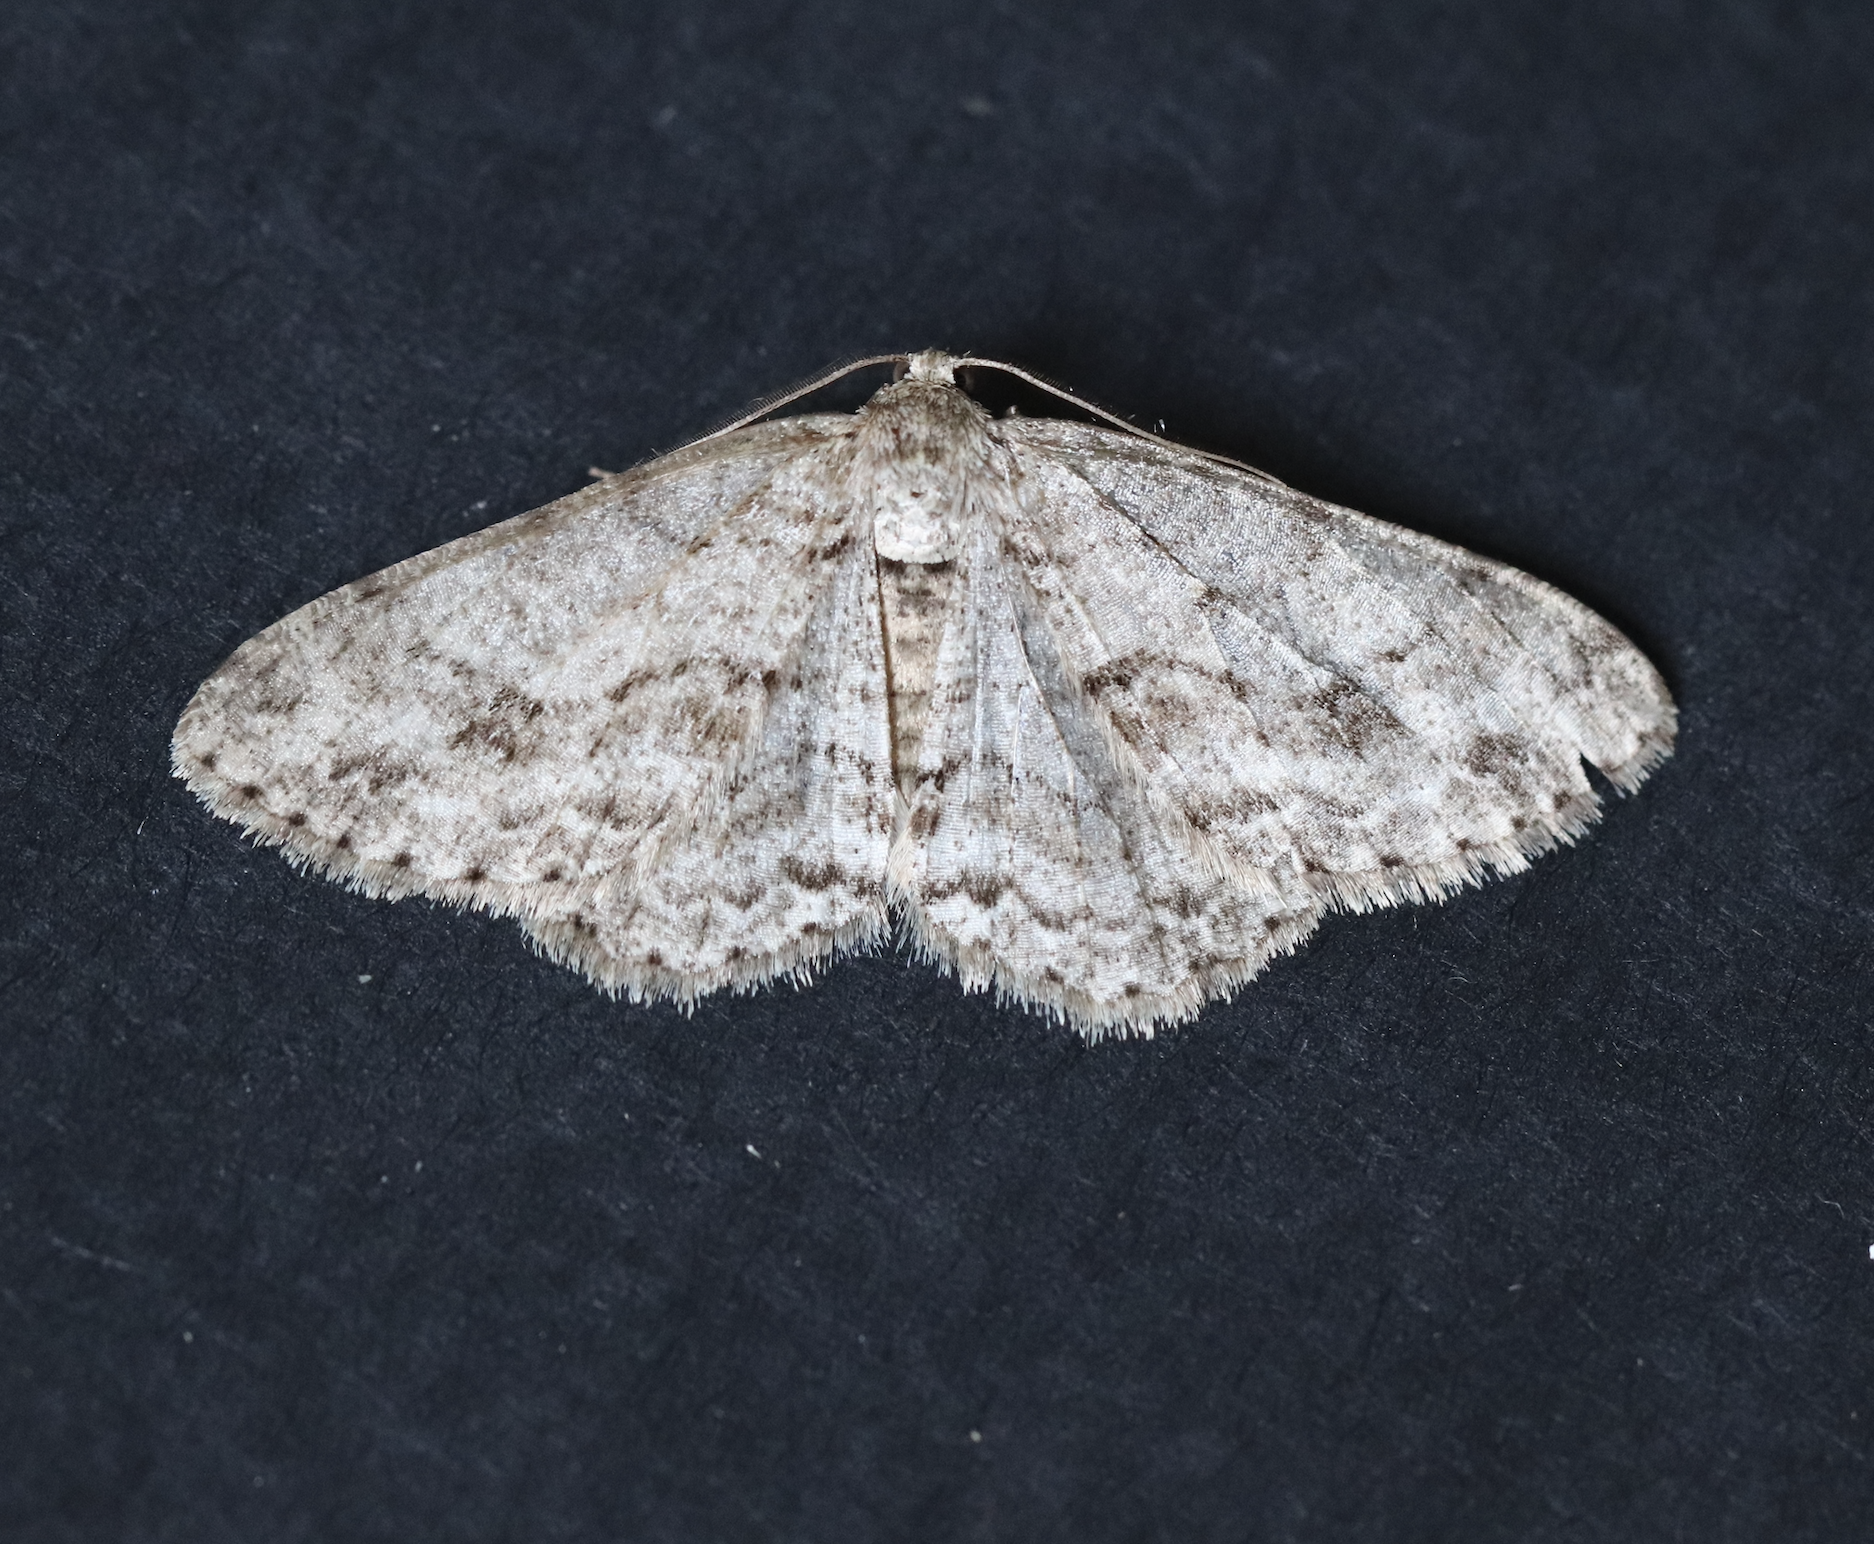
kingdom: Animalia
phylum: Arthropoda
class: Insecta
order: Lepidoptera
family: Geometridae
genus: Ectropis
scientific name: Ectropis crepuscularia
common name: Engrailed
